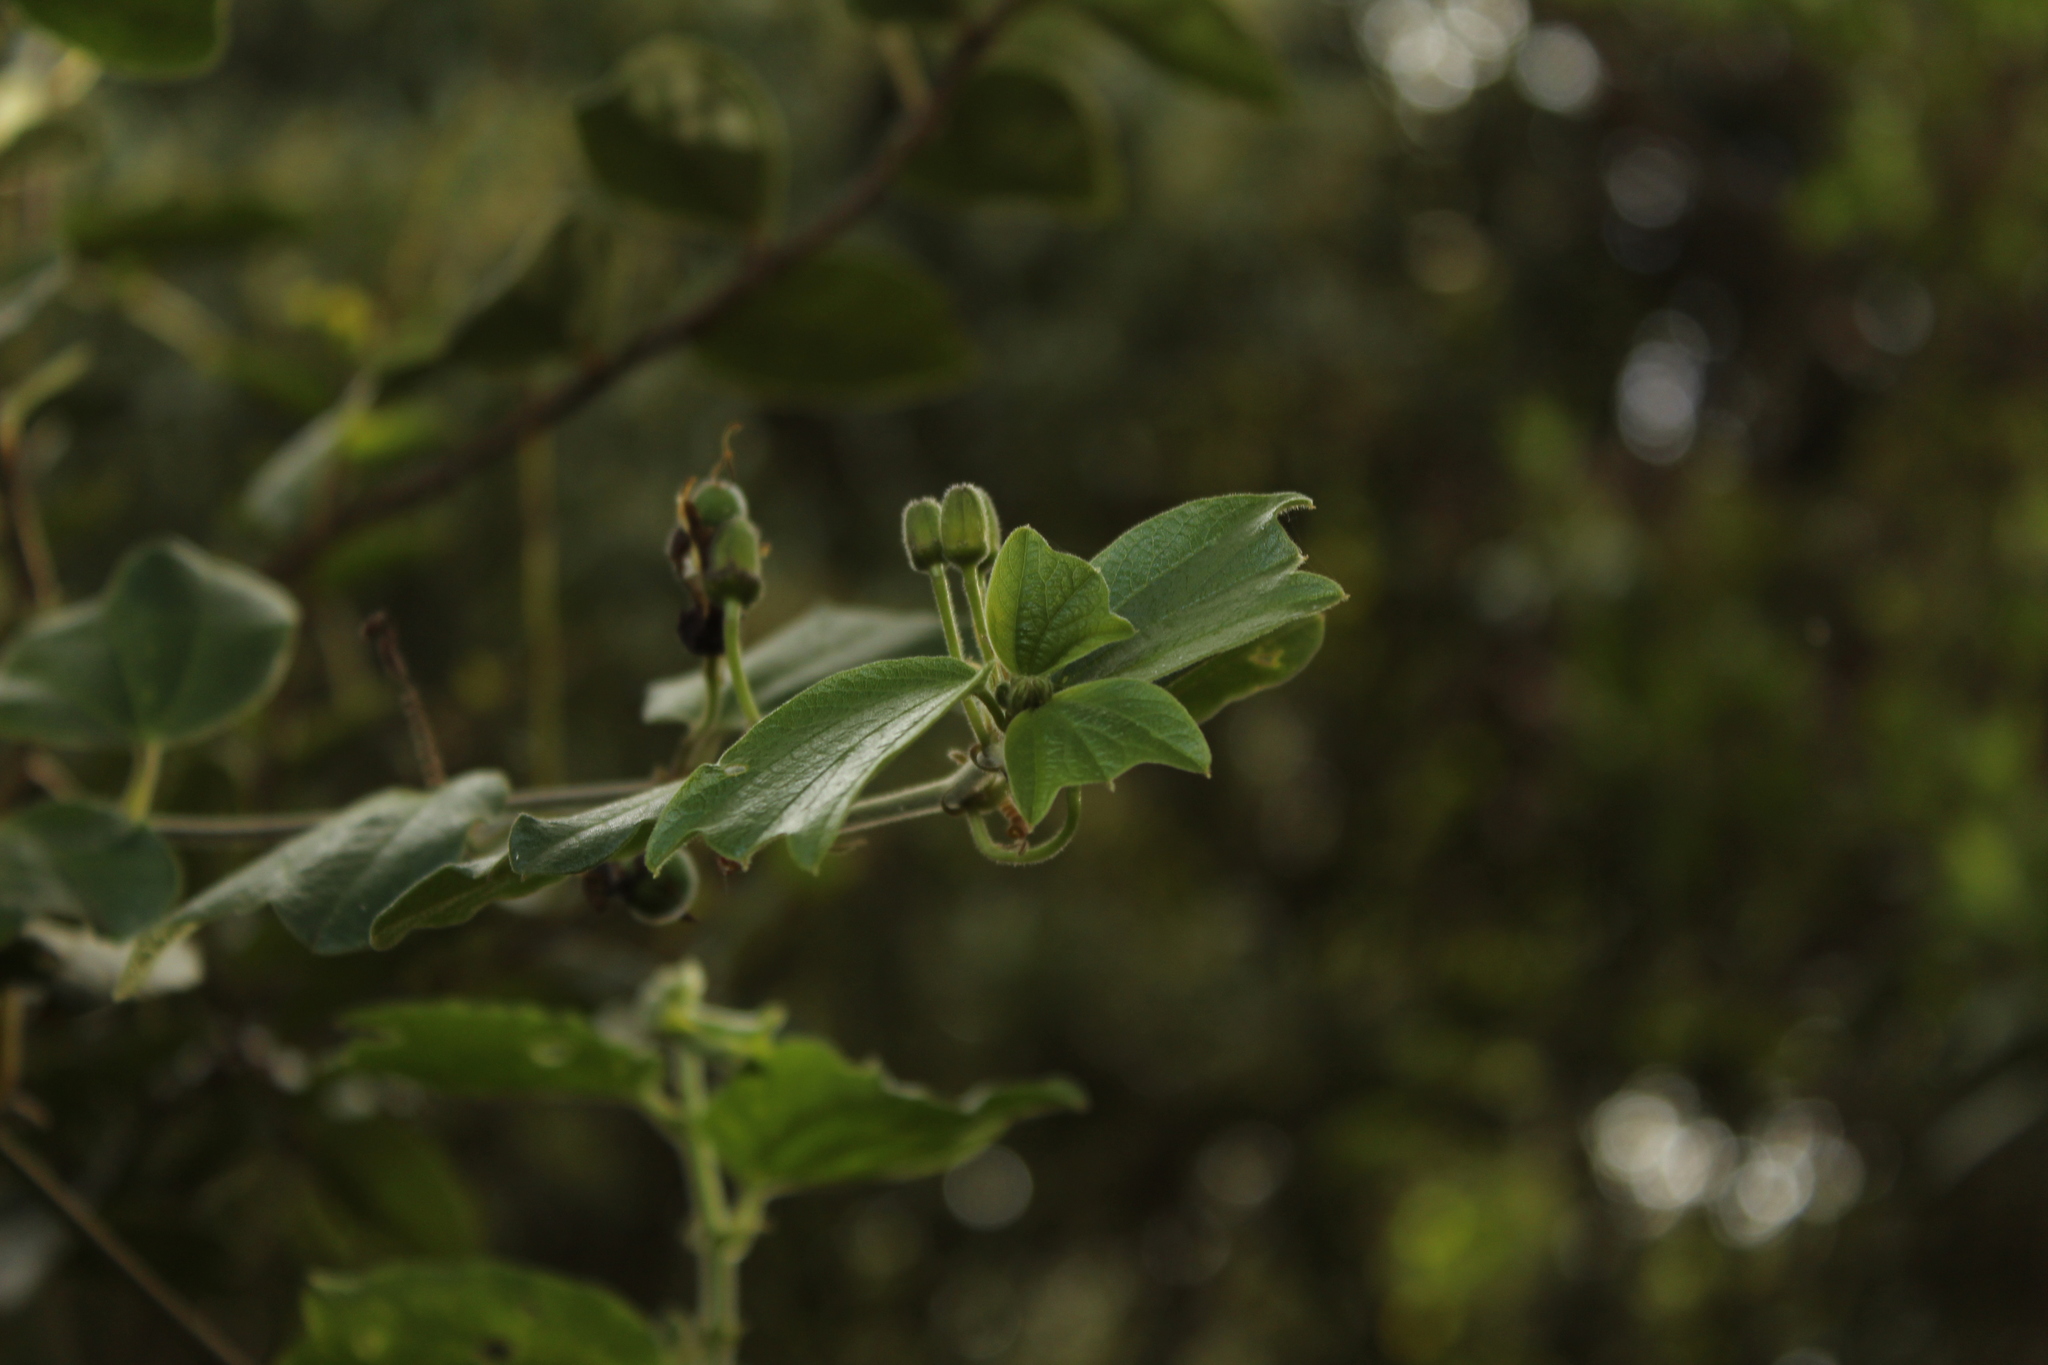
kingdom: Plantae
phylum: Tracheophyta
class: Magnoliopsida
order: Malpighiales
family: Passifloraceae
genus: Passiflora
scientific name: Passiflora bogotensis
